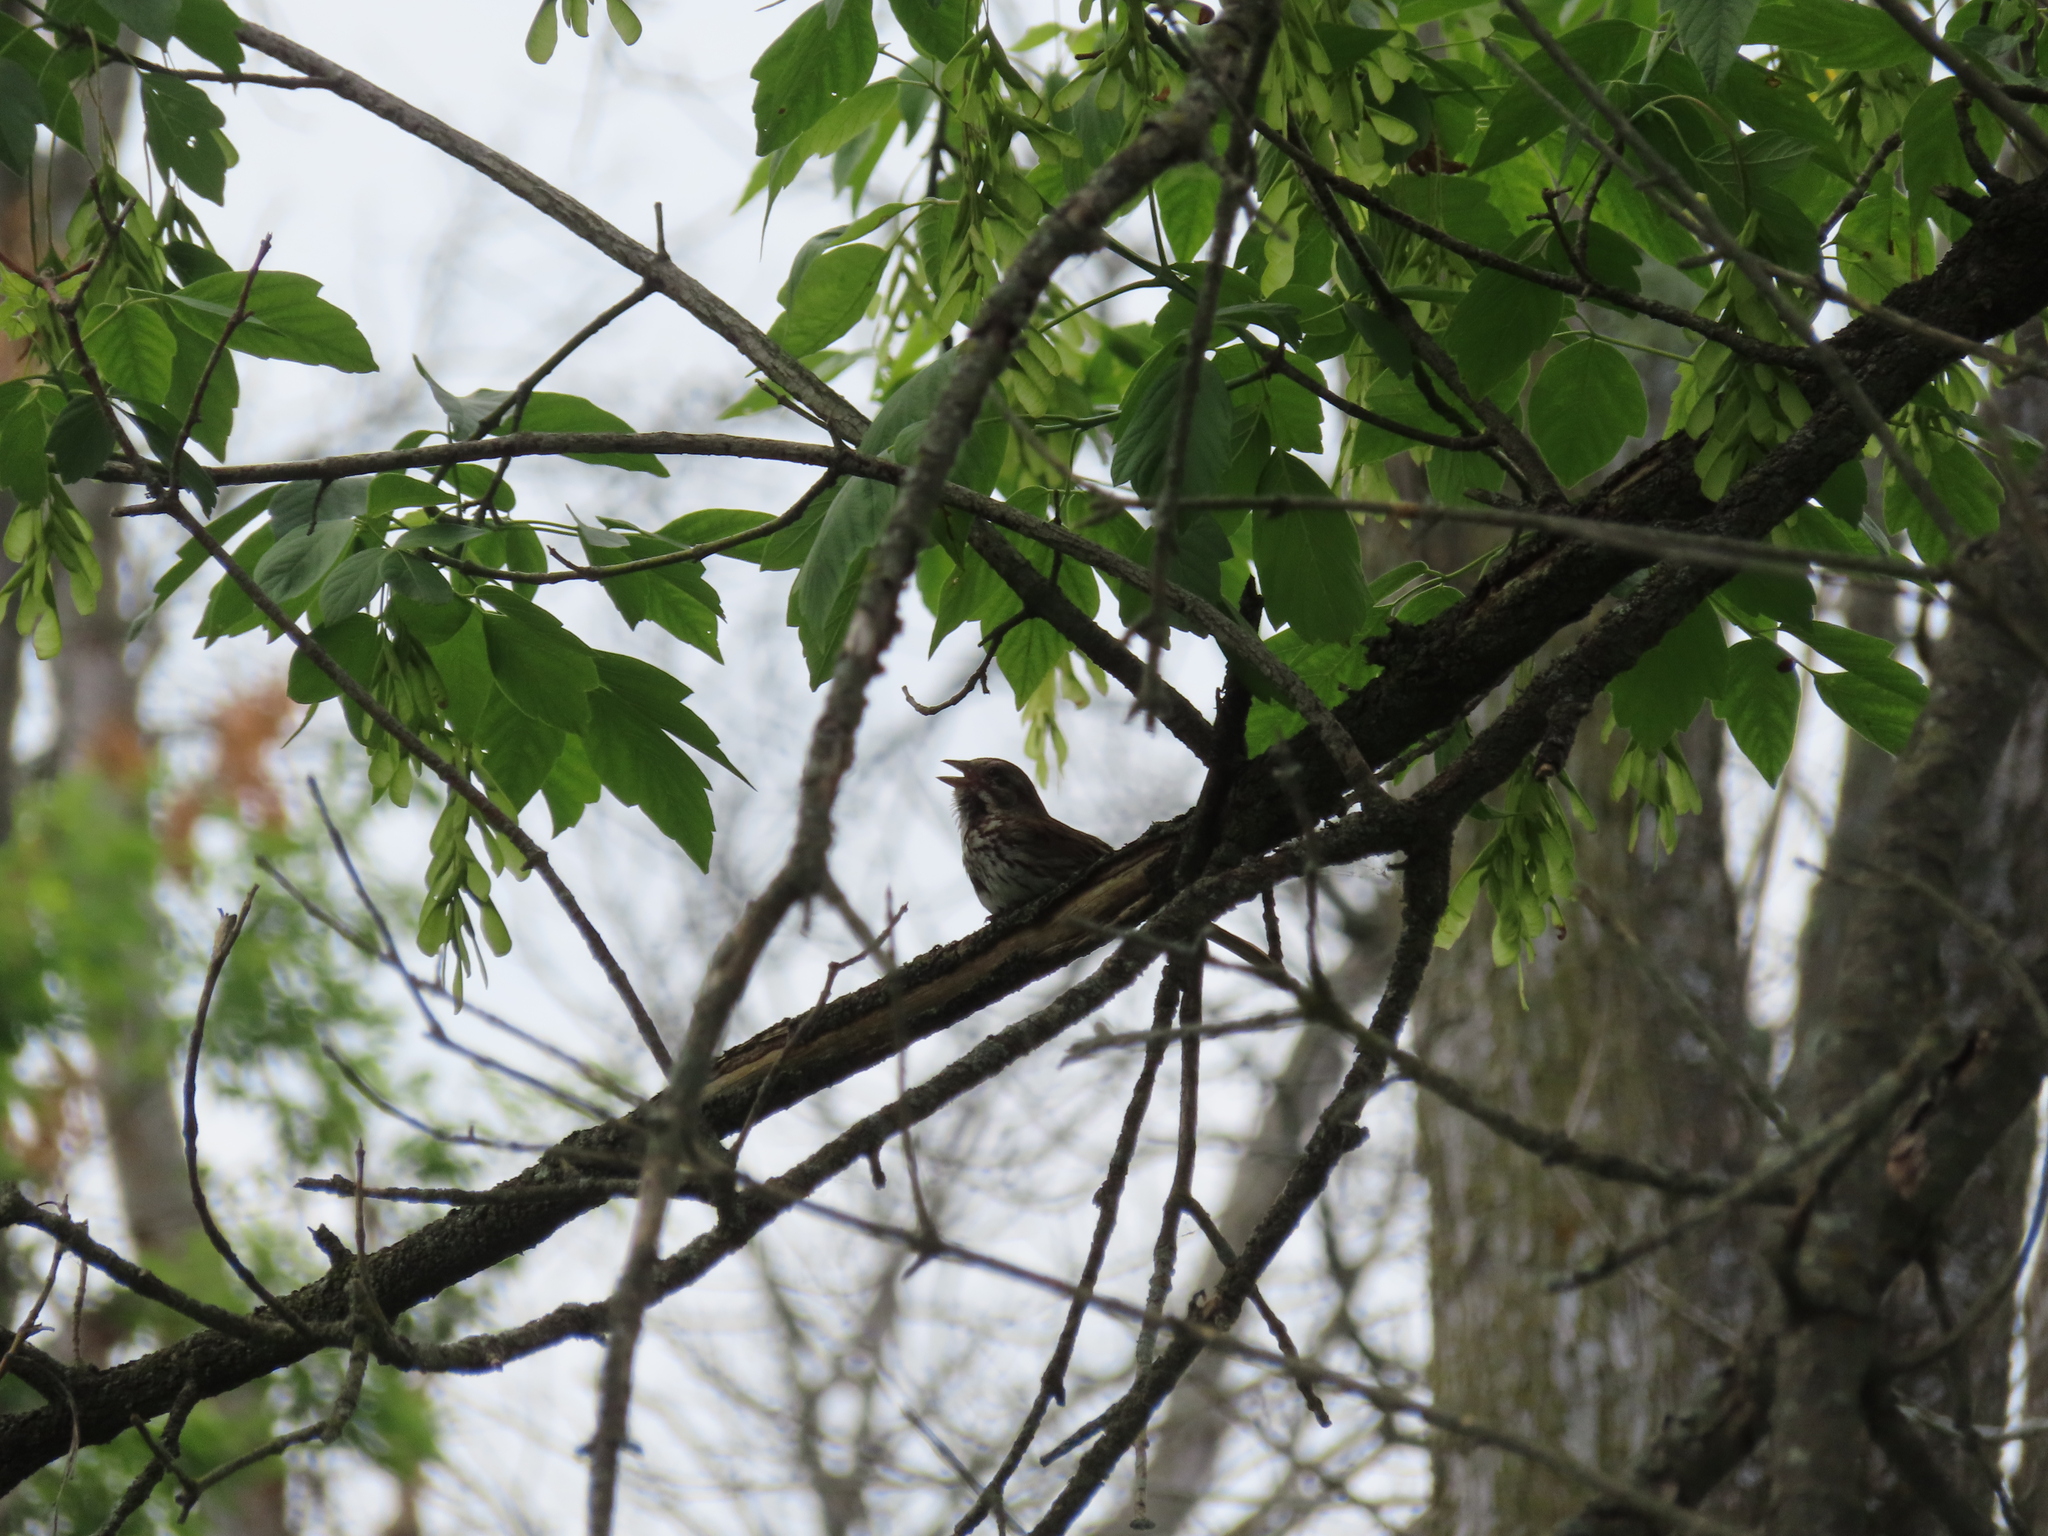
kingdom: Animalia
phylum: Chordata
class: Aves
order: Passeriformes
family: Passerellidae
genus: Melospiza
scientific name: Melospiza melodia
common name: Song sparrow
